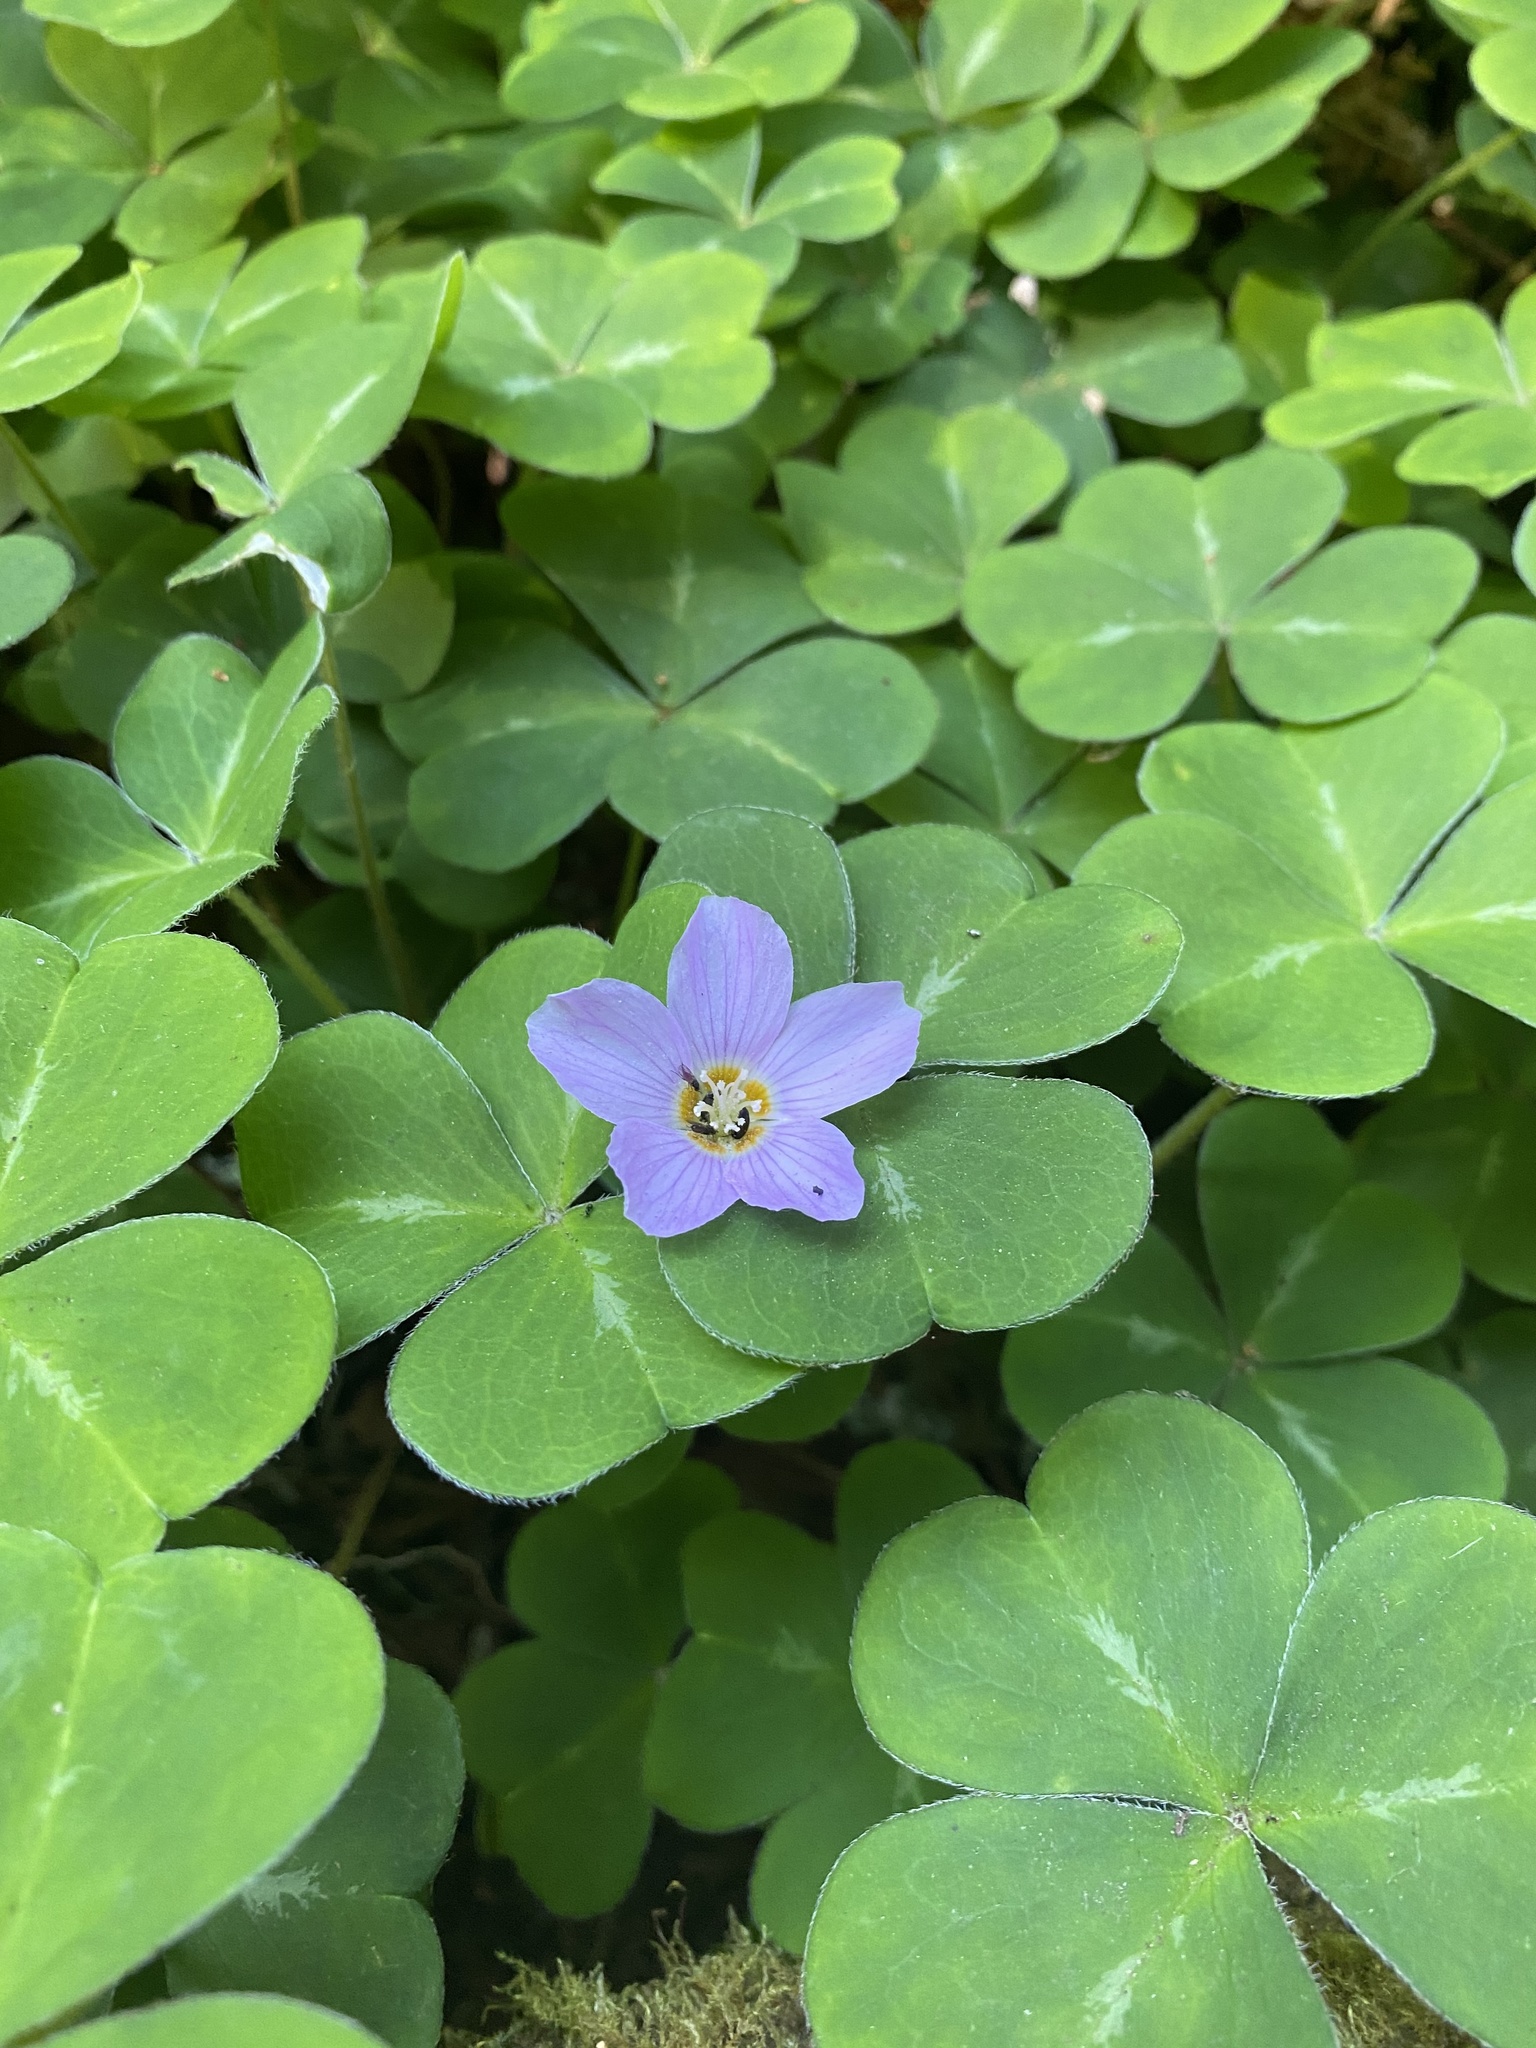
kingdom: Plantae
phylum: Tracheophyta
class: Magnoliopsida
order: Oxalidales
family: Oxalidaceae
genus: Oxalis
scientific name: Oxalis oregana
